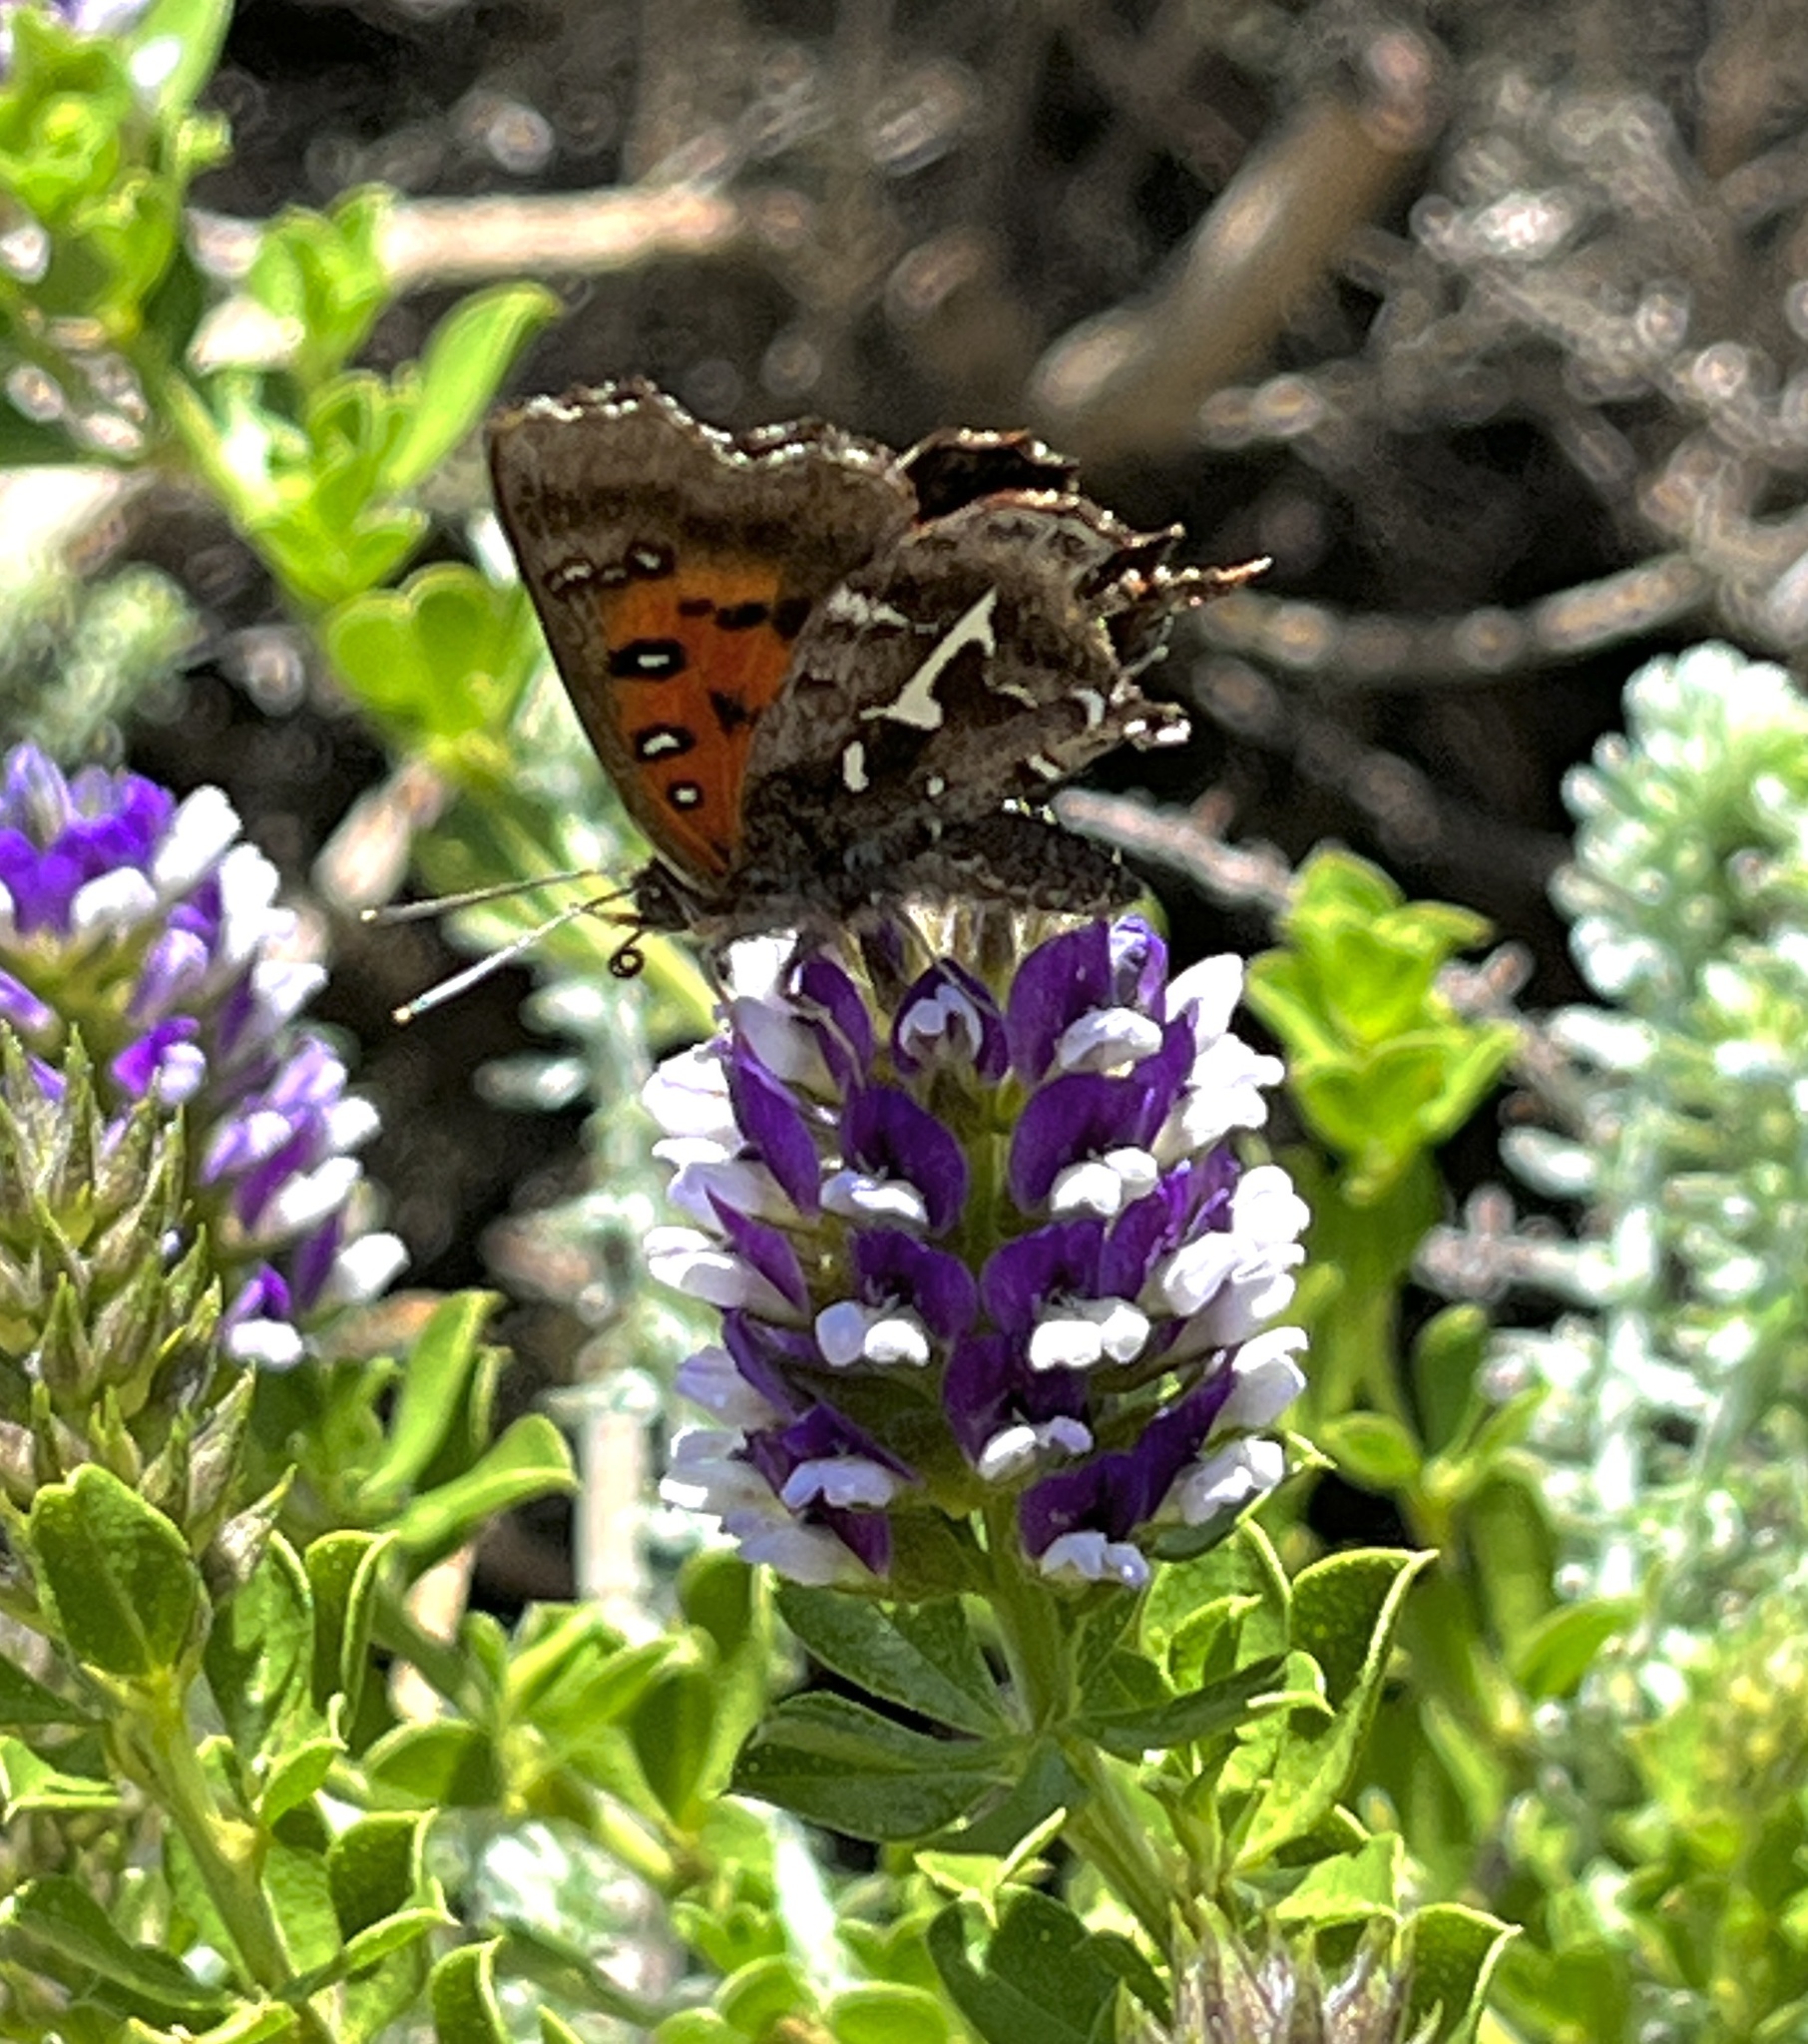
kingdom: Animalia
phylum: Arthropoda
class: Insecta
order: Lepidoptera
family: Lycaenidae
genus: Phasis
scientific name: Phasis thero
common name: Silver arrowhead
